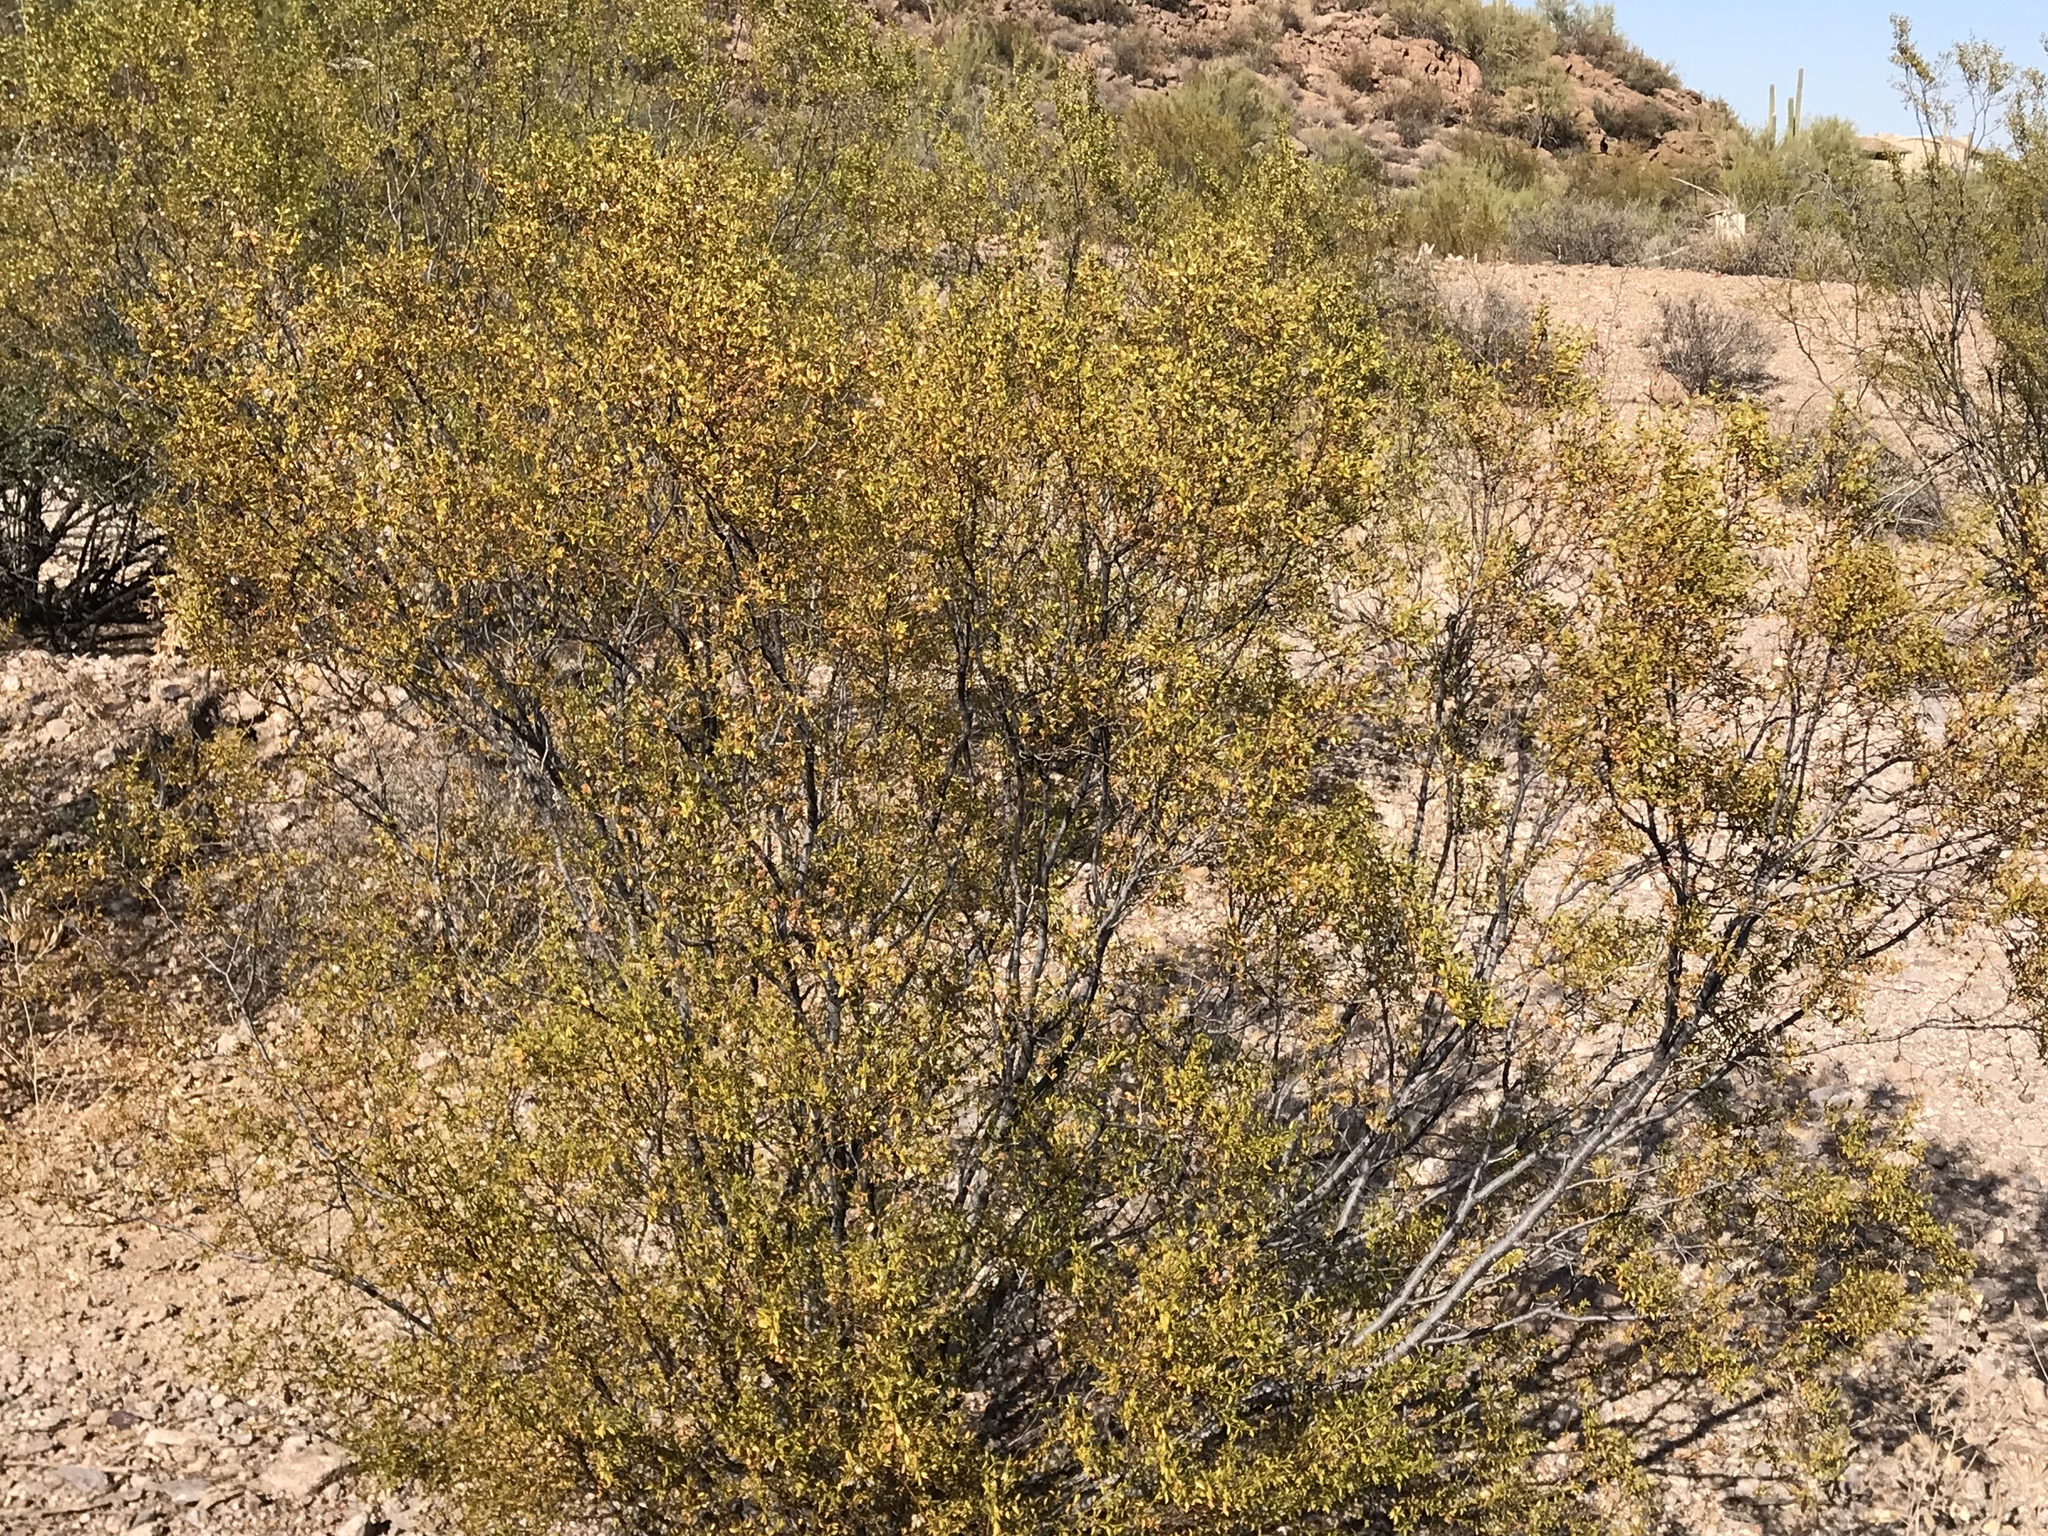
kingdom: Plantae
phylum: Tracheophyta
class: Magnoliopsida
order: Zygophyllales
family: Zygophyllaceae
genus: Larrea
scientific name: Larrea tridentata
